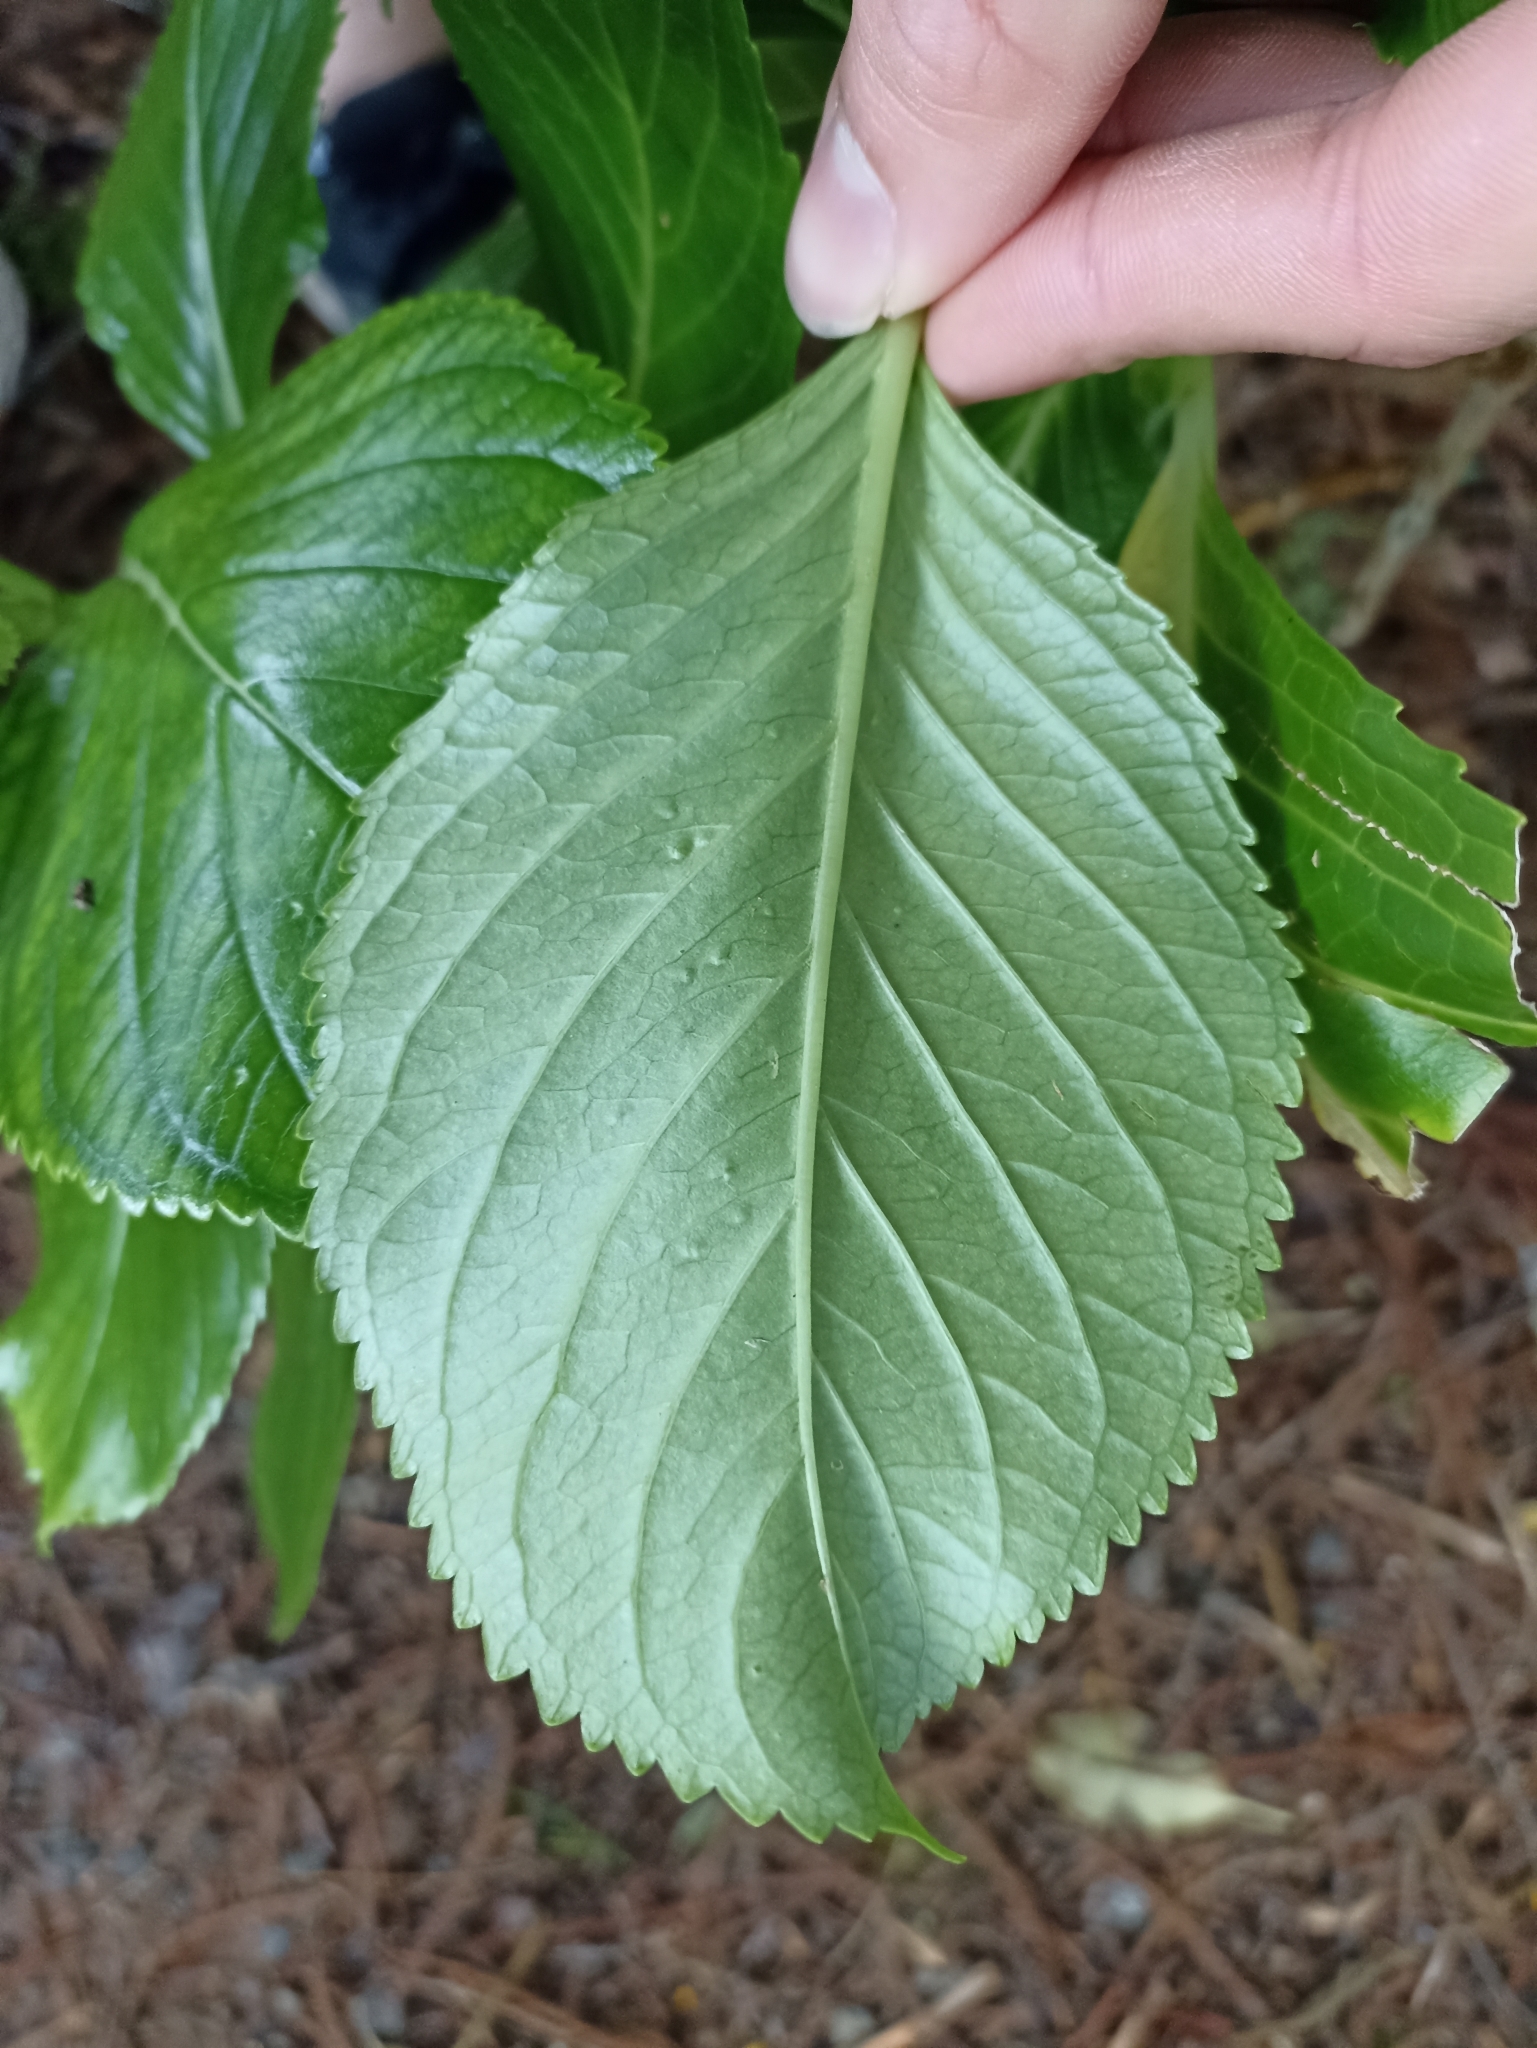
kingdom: Plantae
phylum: Tracheophyta
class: Magnoliopsida
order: Cornales
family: Hydrangeaceae
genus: Hydrangea
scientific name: Hydrangea macrophylla
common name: Hydrangea
